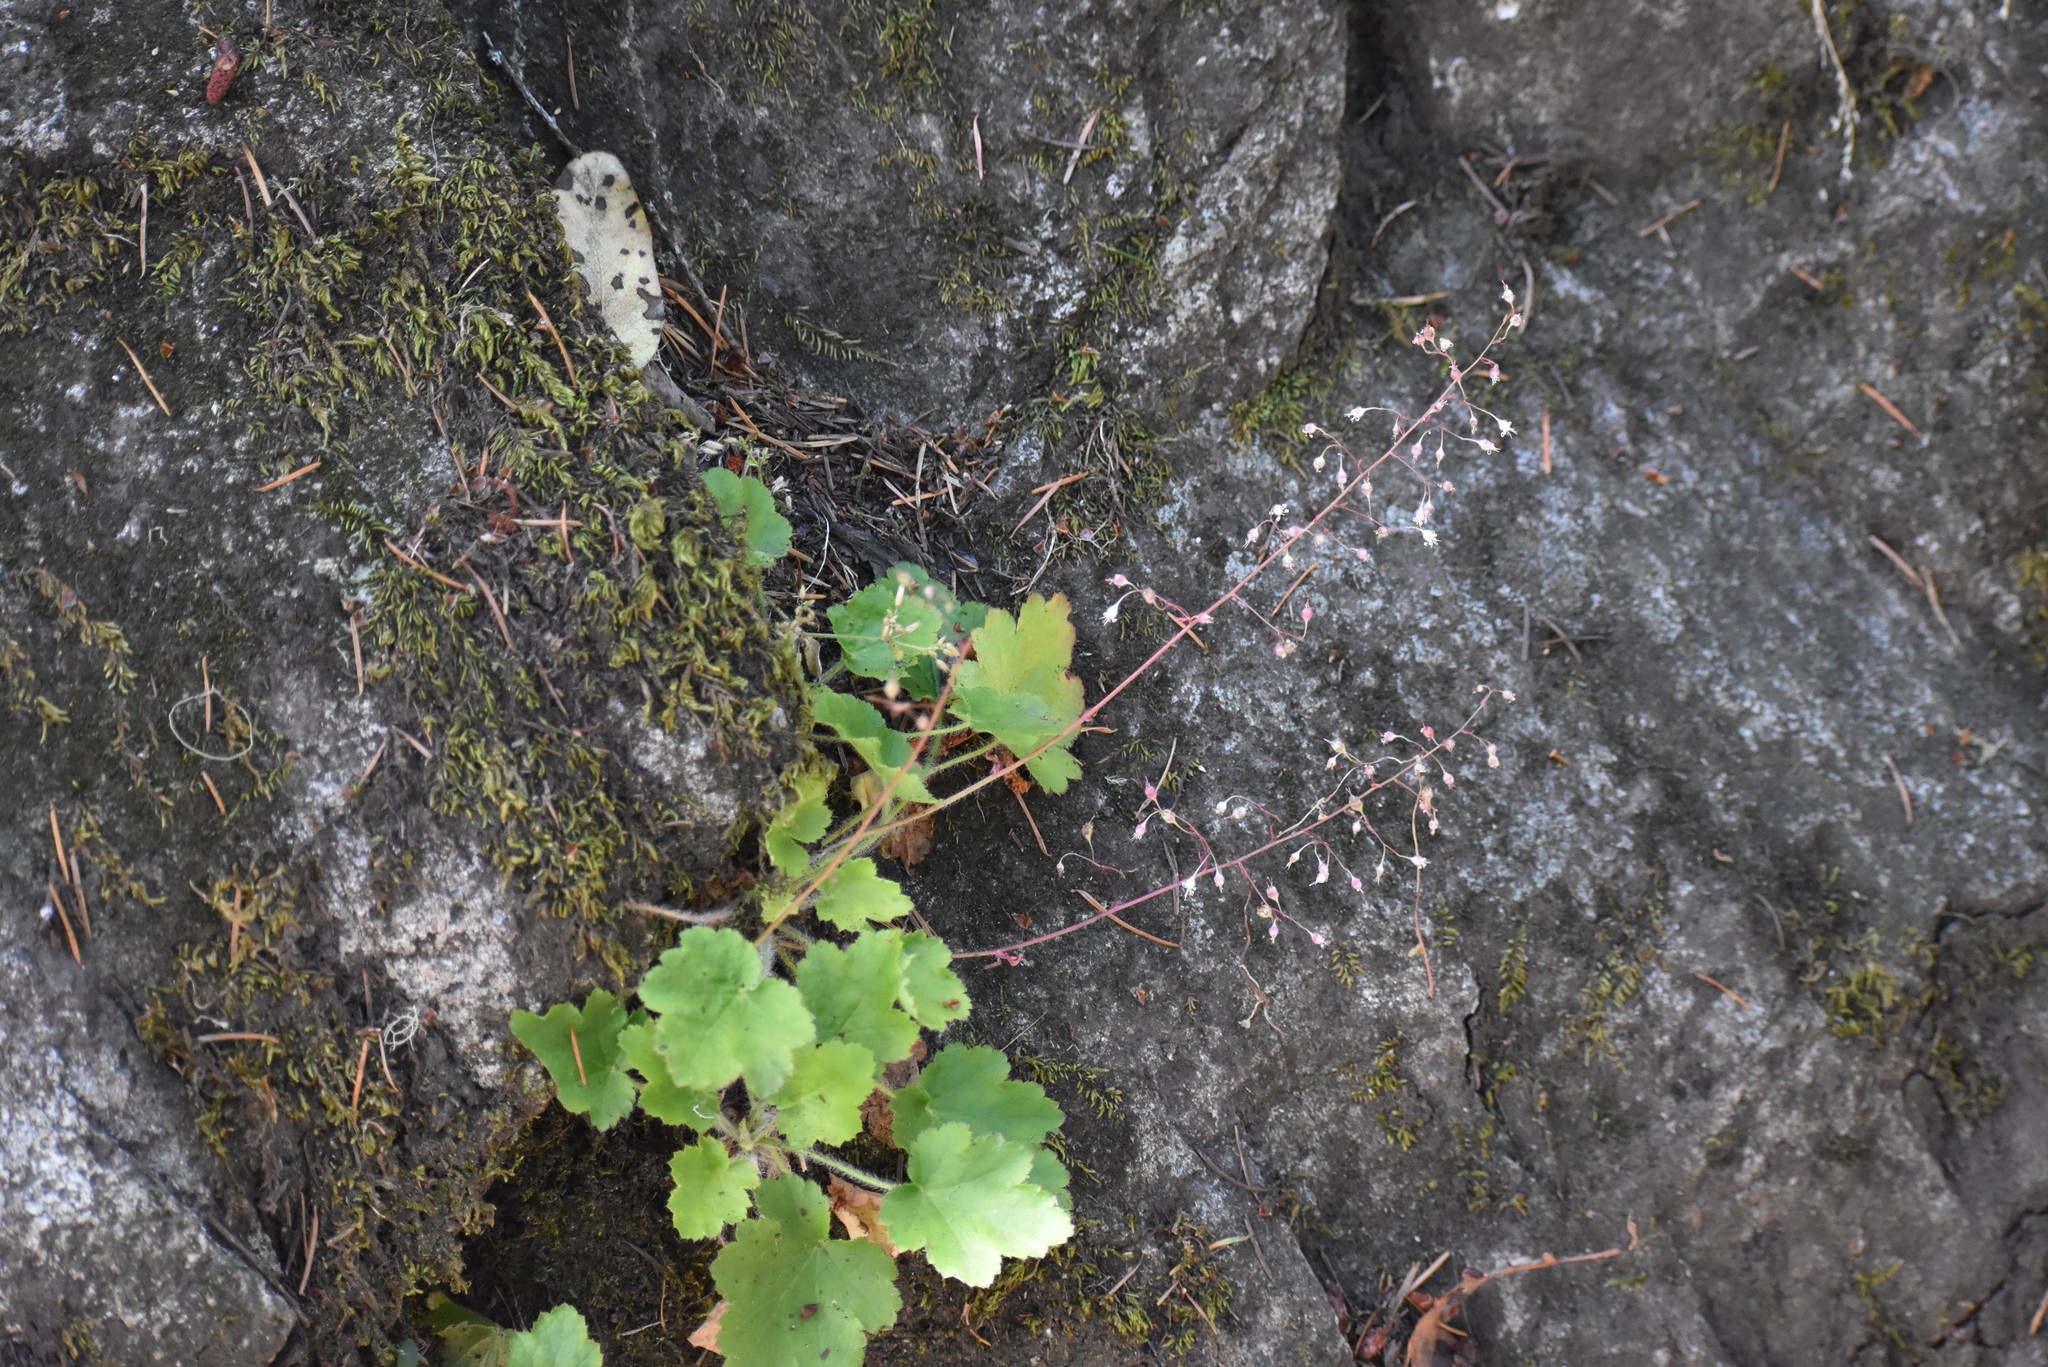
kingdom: Plantae
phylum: Tracheophyta
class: Magnoliopsida
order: Saxifragales
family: Saxifragaceae
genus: Heuchera
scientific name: Heuchera micrantha
